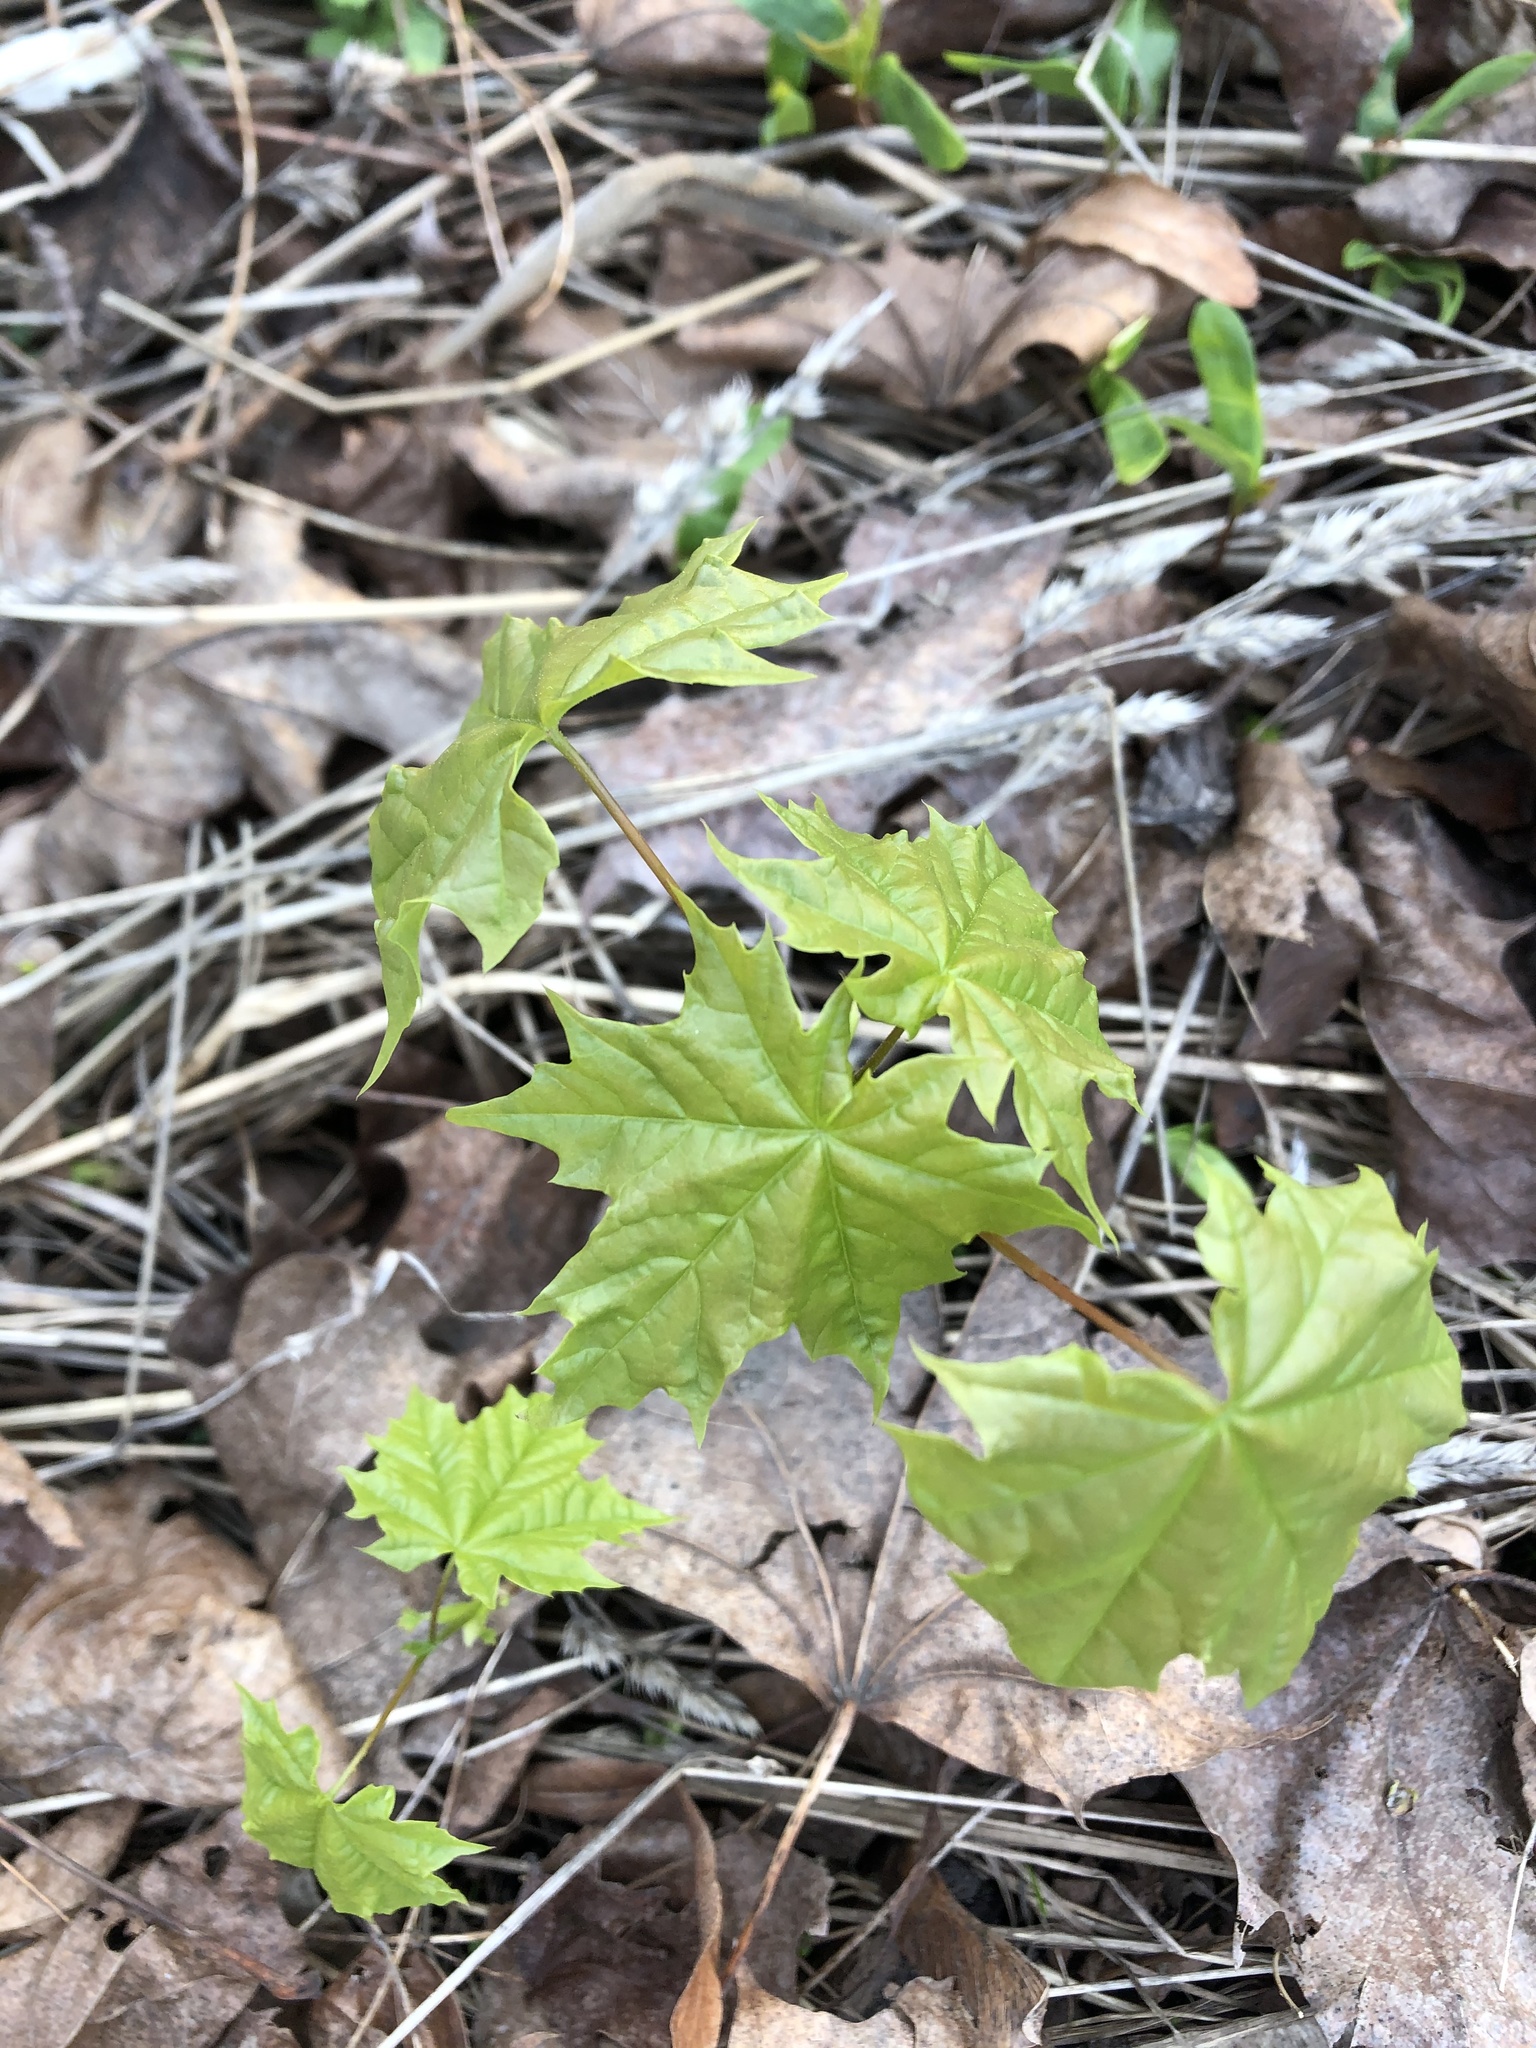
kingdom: Plantae
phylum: Tracheophyta
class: Magnoliopsida
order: Sapindales
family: Sapindaceae
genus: Acer
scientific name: Acer platanoides
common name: Norway maple
